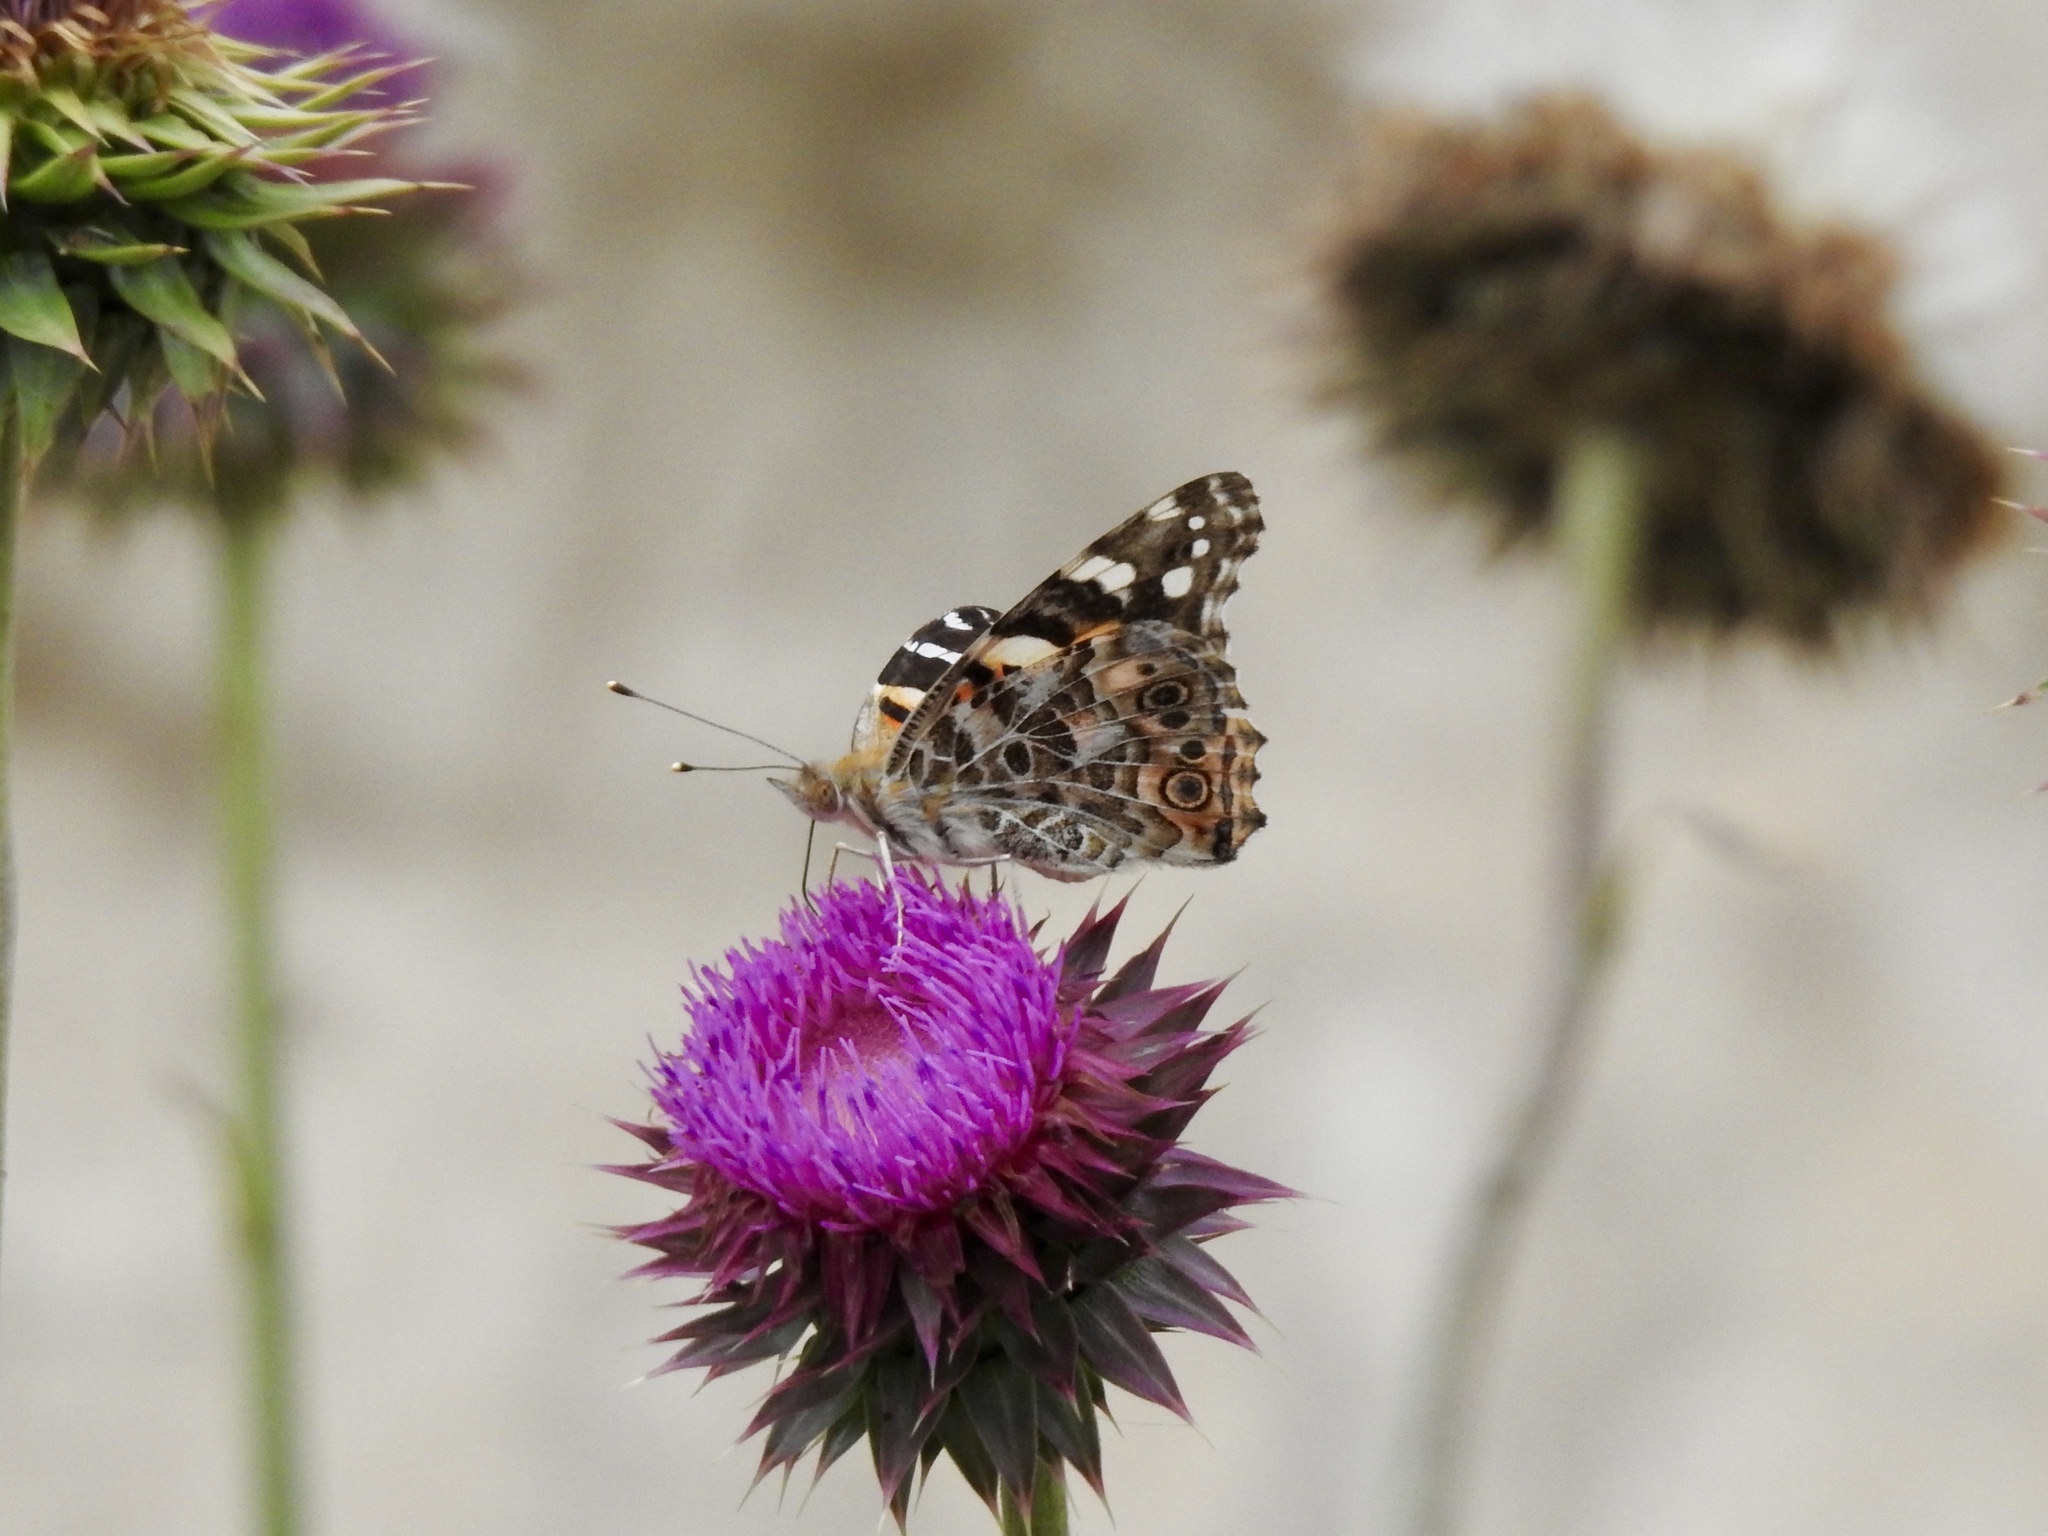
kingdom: Animalia
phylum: Arthropoda
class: Insecta
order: Lepidoptera
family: Nymphalidae
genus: Vanessa
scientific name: Vanessa cardui
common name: Painted lady
